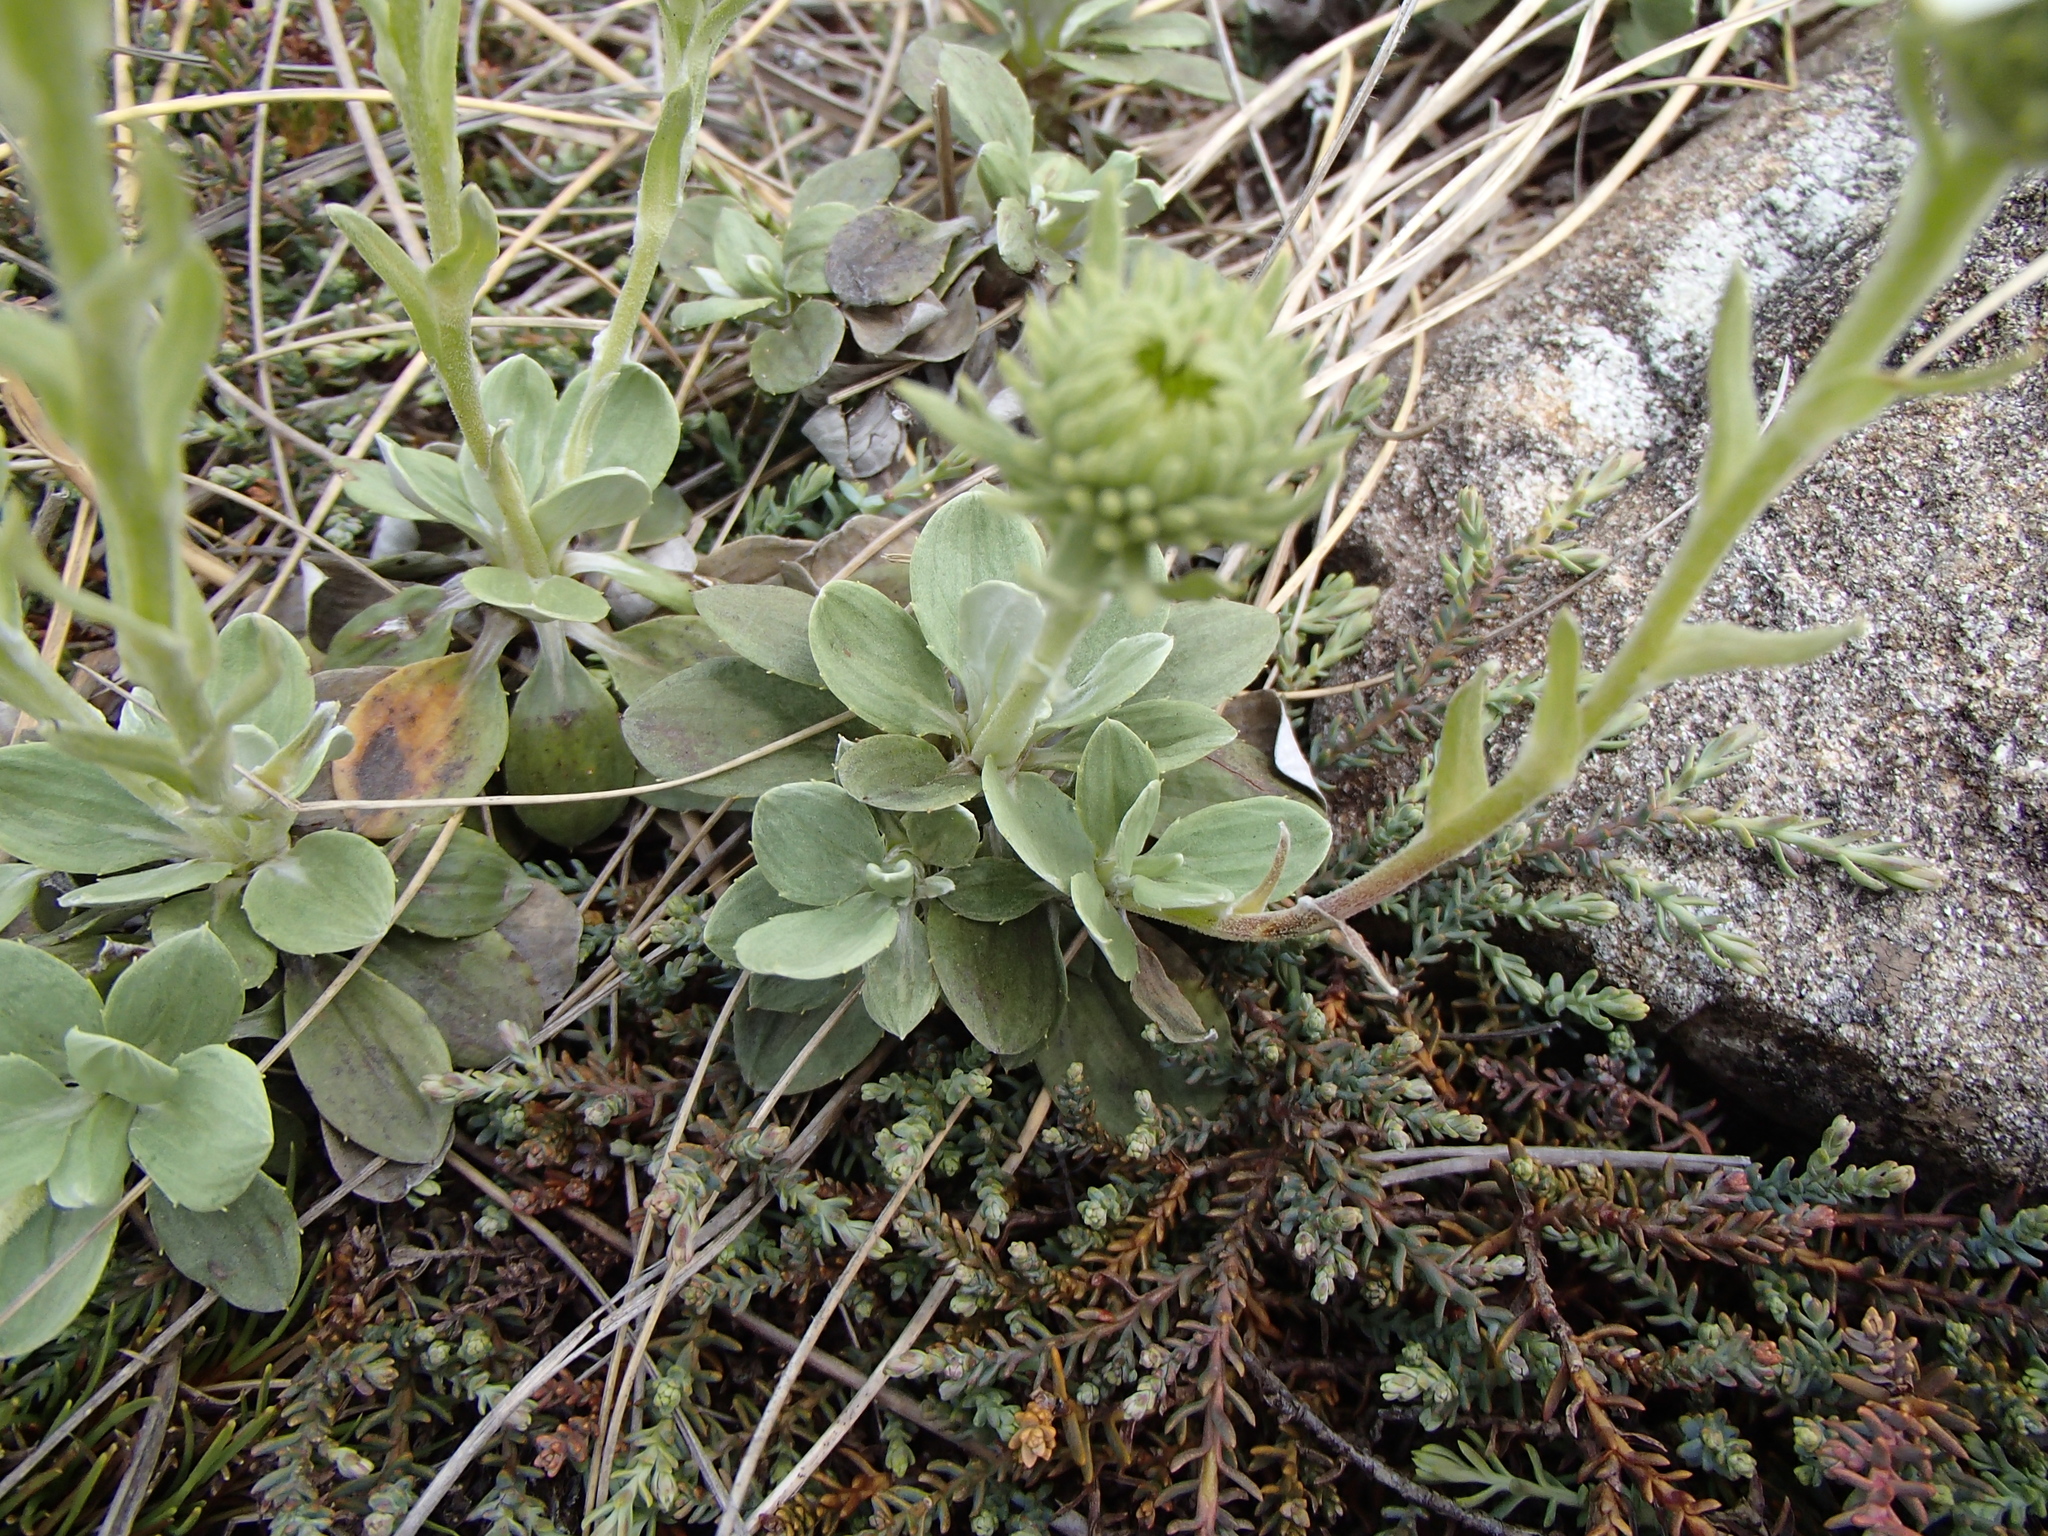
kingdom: Plantae
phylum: Tracheophyta
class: Magnoliopsida
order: Asterales
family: Asteraceae
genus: Celmisia
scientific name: Celmisia discolor
